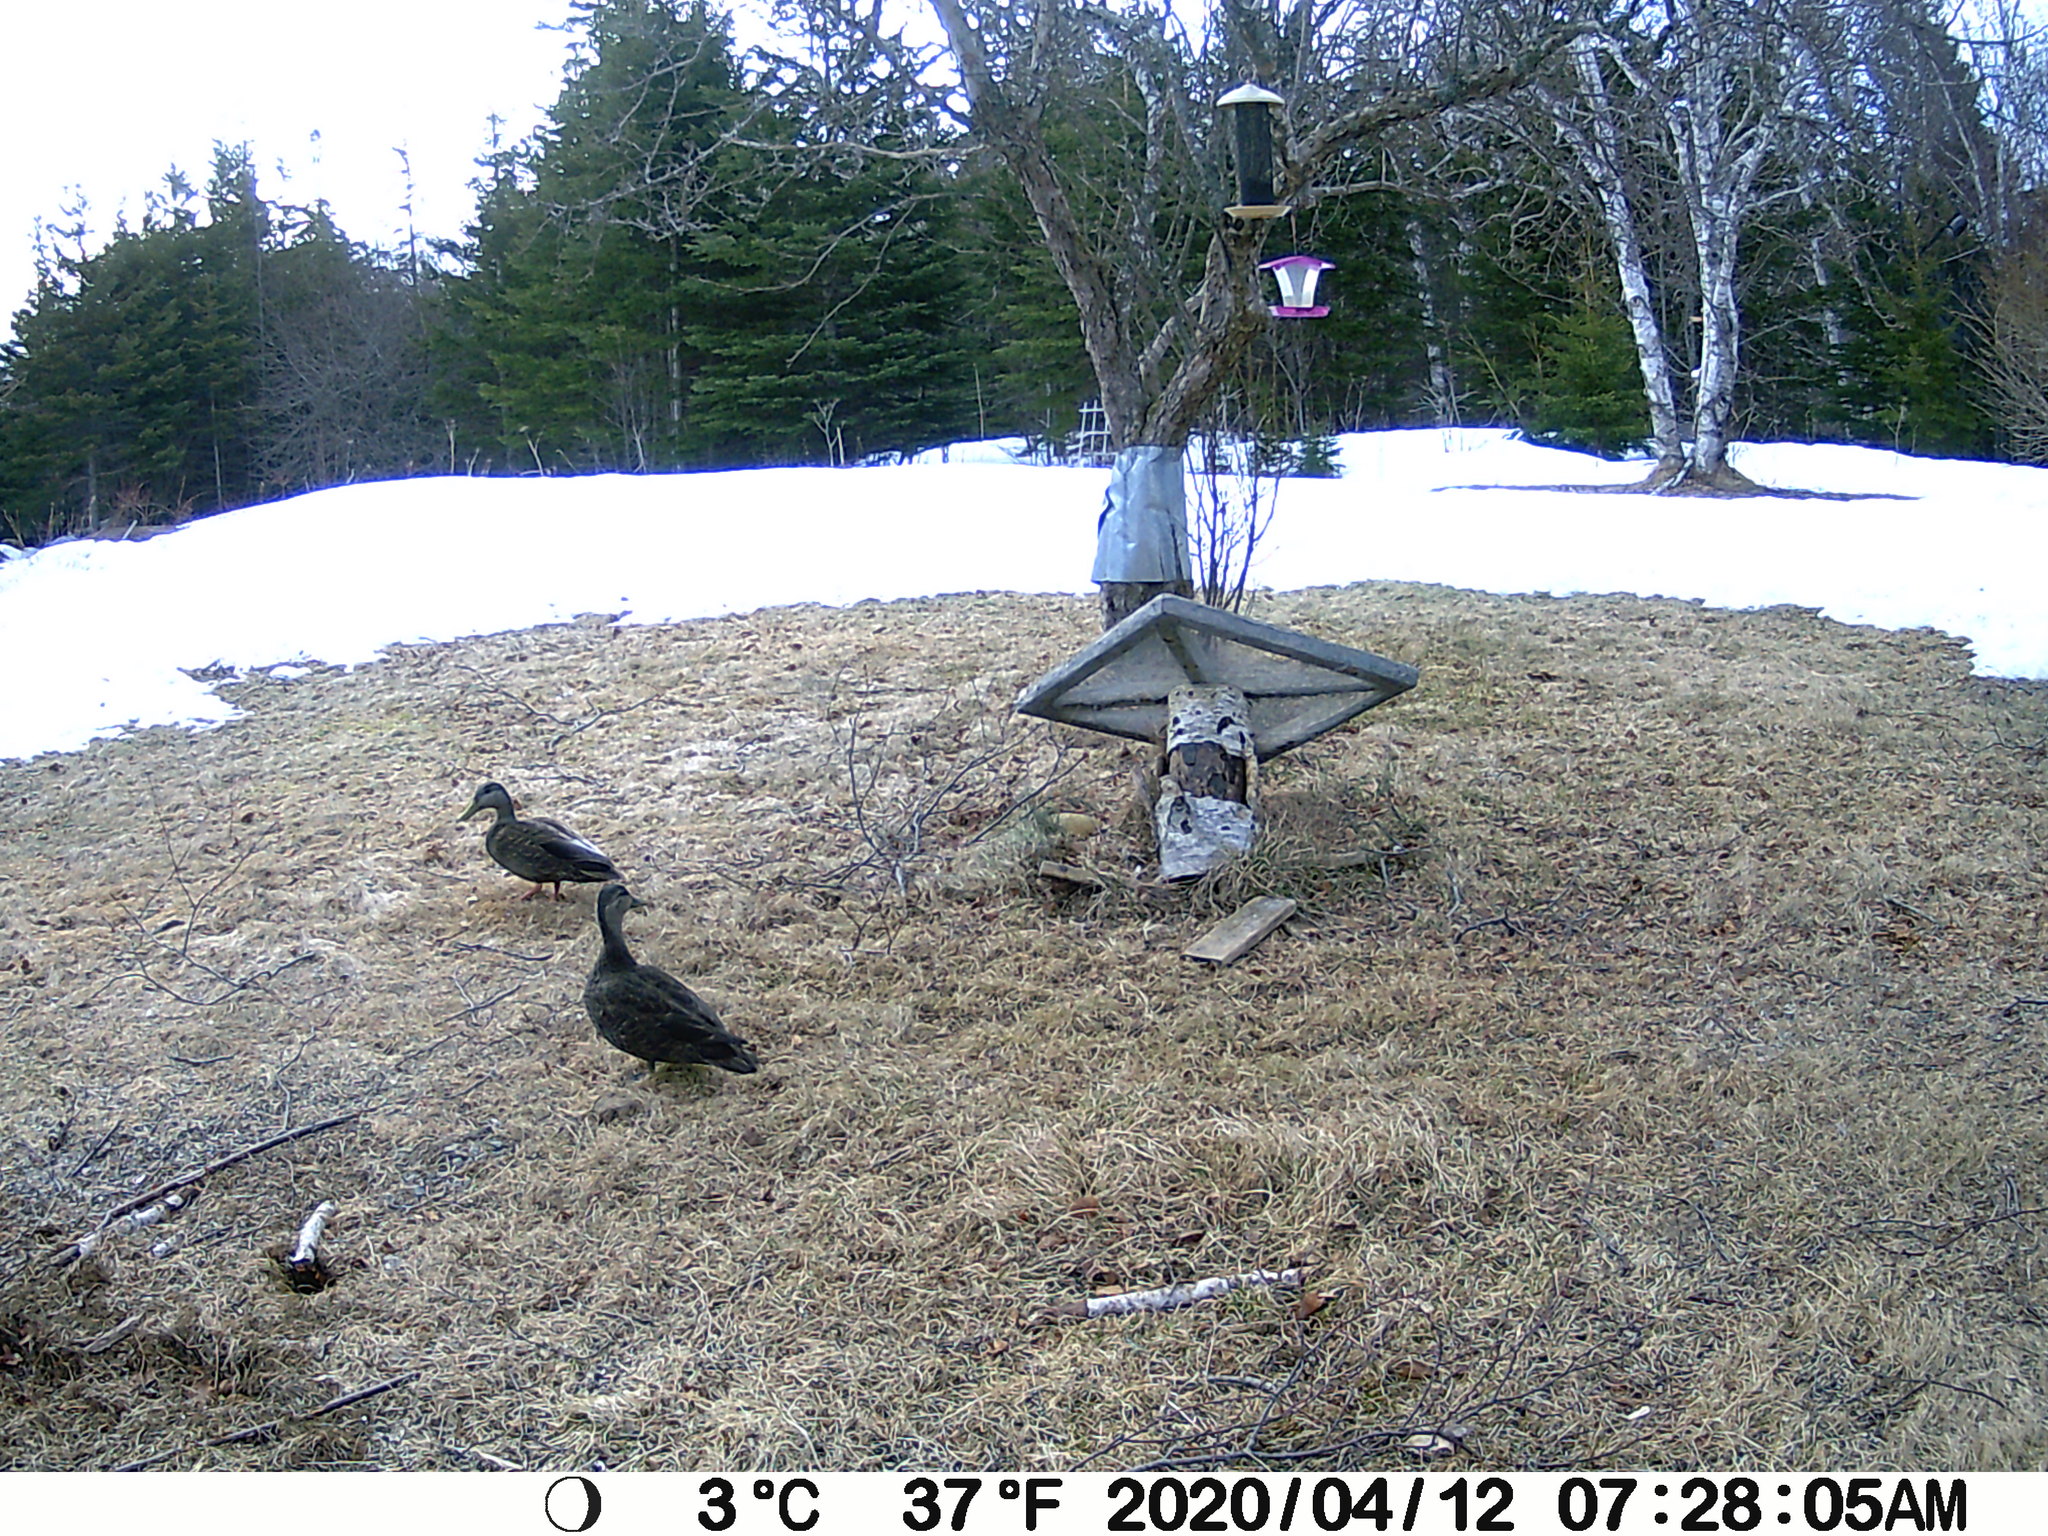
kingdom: Animalia
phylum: Chordata
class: Aves
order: Anseriformes
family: Anatidae
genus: Anas
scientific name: Anas rubripes
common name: American black duck
